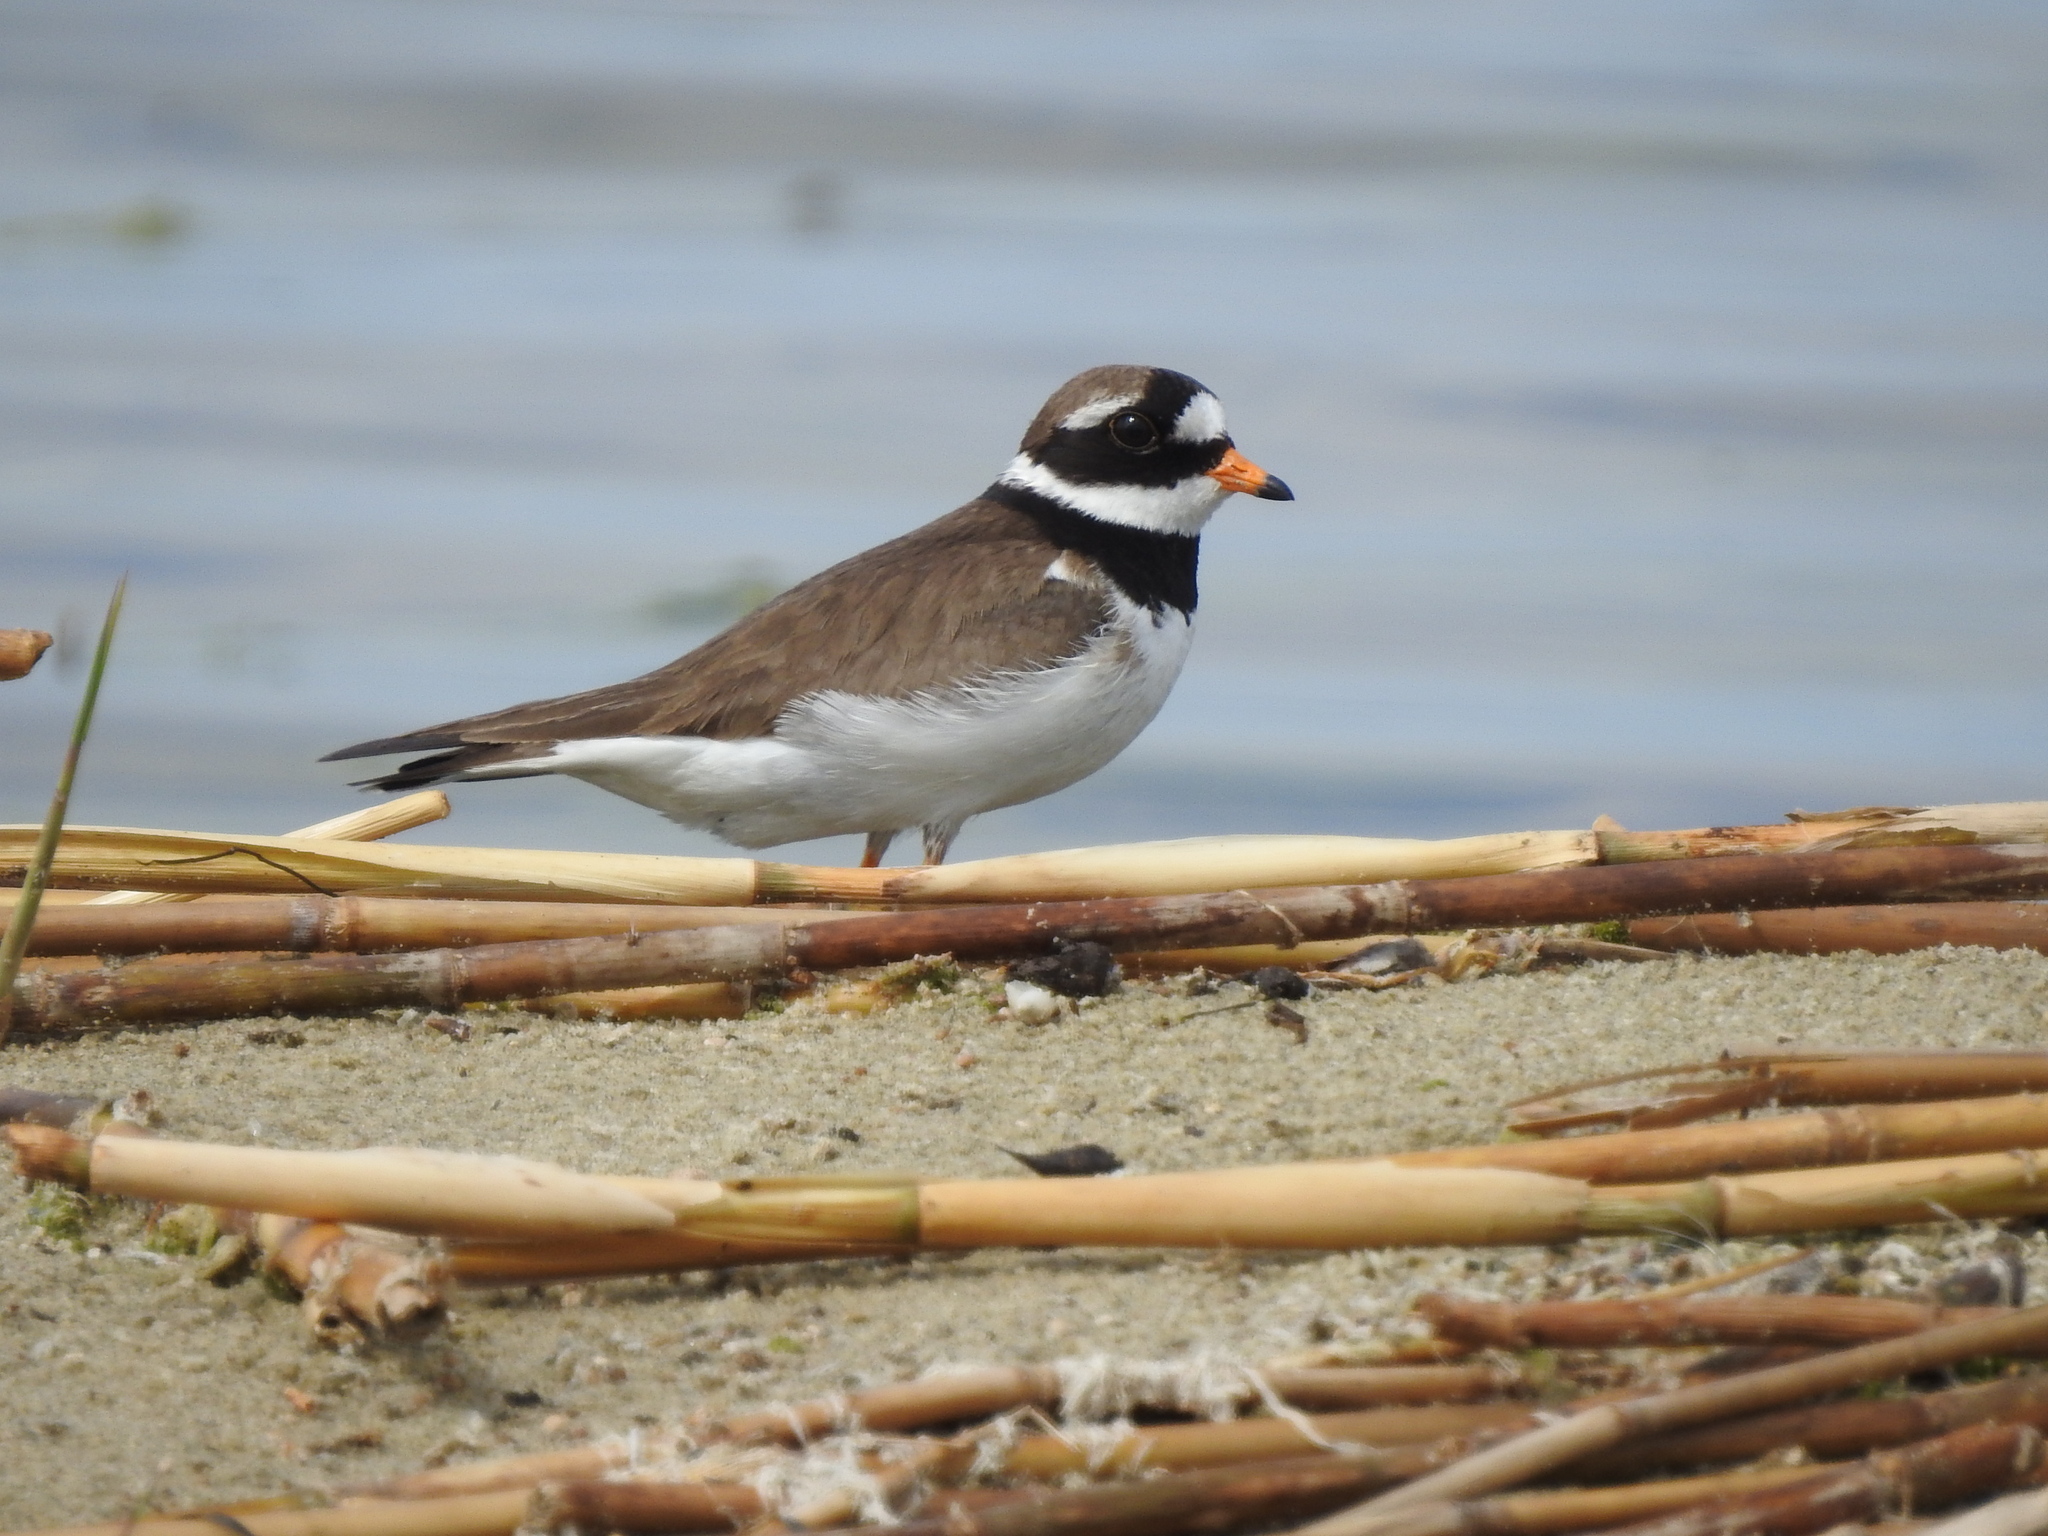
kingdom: Animalia
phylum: Chordata
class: Aves
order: Charadriiformes
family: Charadriidae
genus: Charadrius
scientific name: Charadrius hiaticula
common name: Common ringed plover
